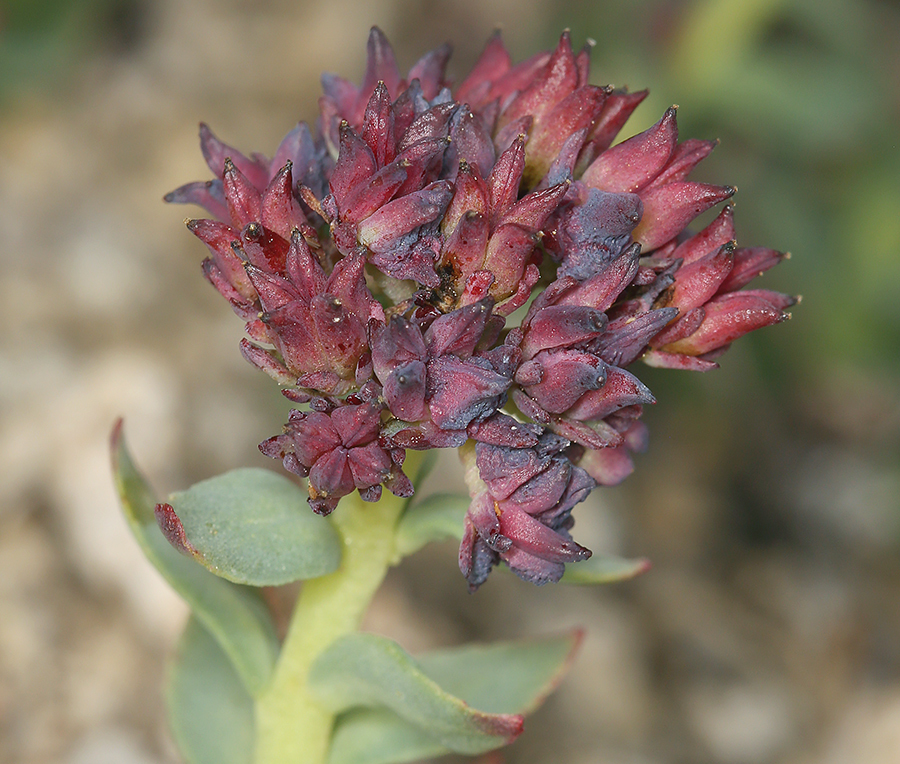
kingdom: Plantae
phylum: Tracheophyta
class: Magnoliopsida
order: Saxifragales
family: Crassulaceae
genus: Rhodiola
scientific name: Rhodiola integrifolia
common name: Western roseroot
